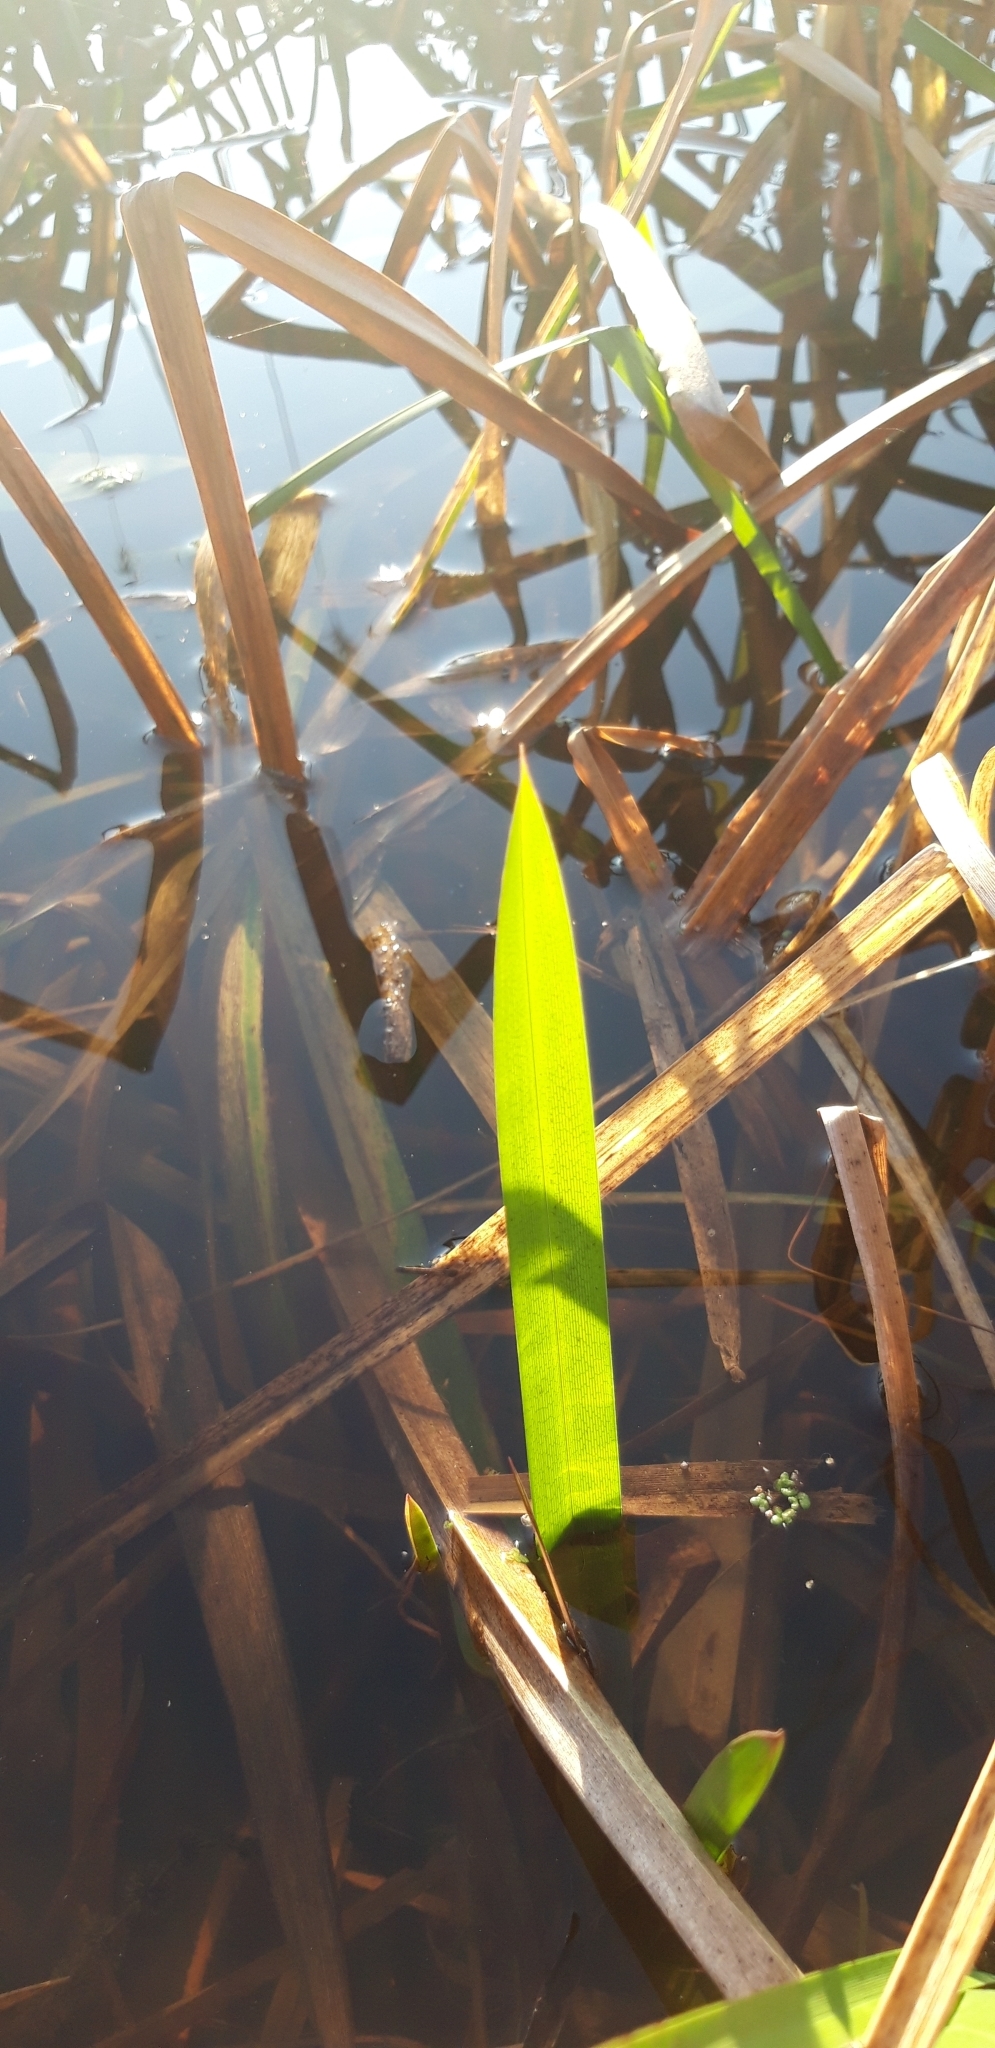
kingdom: Plantae
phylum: Tracheophyta
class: Liliopsida
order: Poales
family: Poaceae
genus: Glyceria
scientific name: Glyceria maxima
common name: Reed mannagrass
